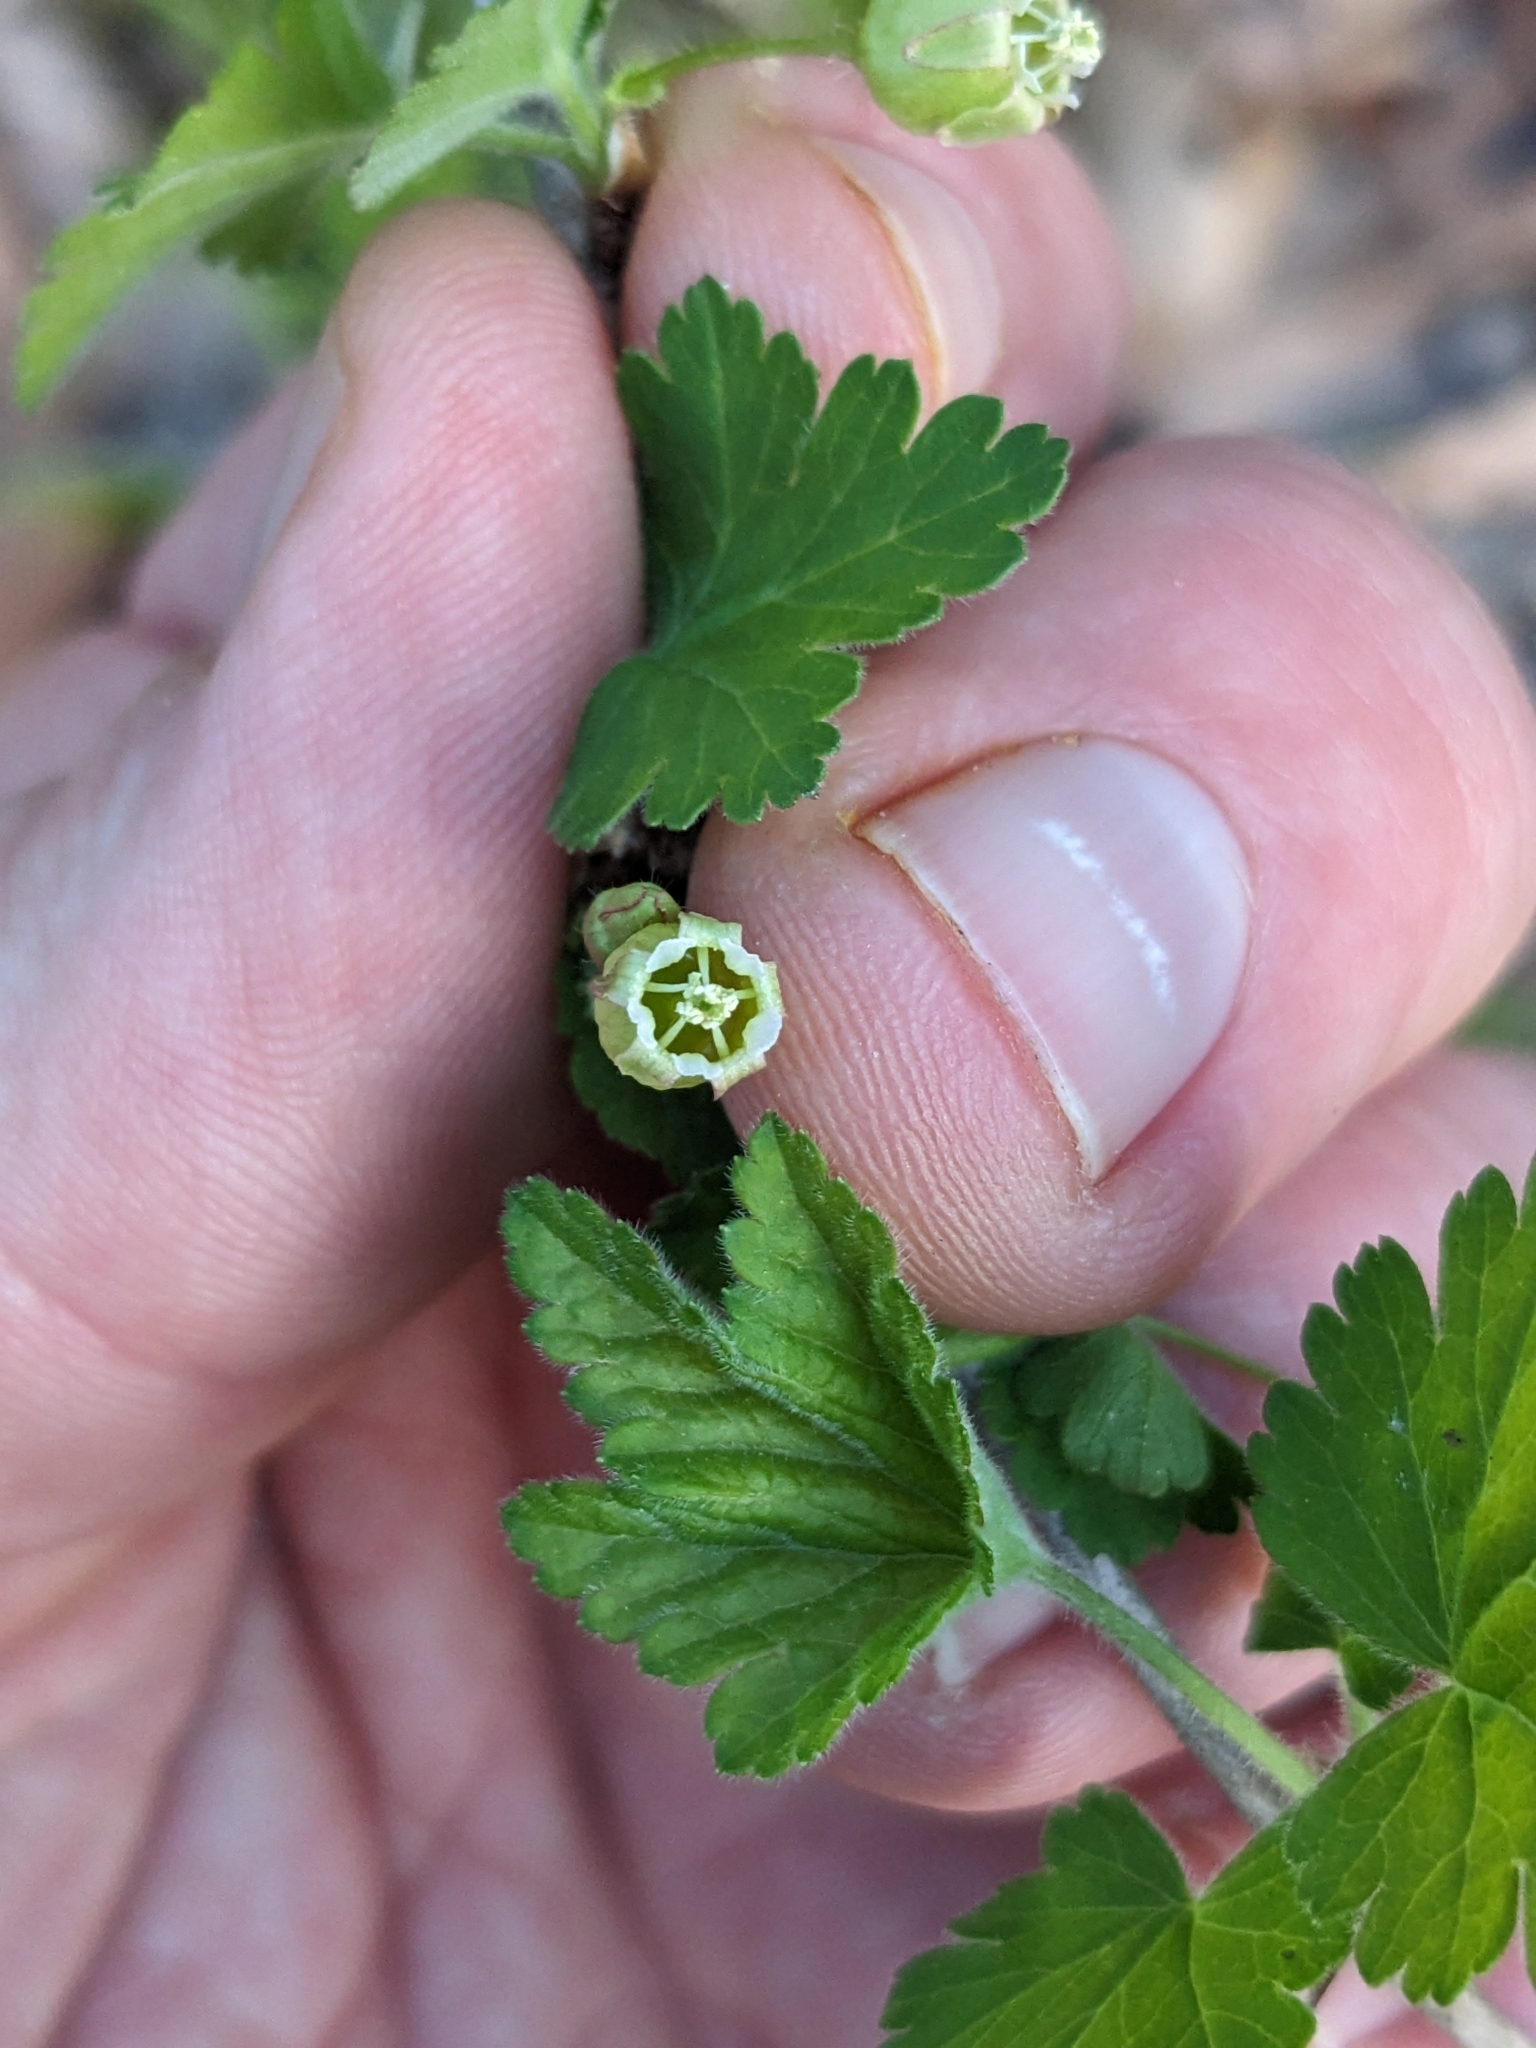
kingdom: Plantae
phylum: Tracheophyta
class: Magnoliopsida
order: Saxifragales
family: Grossulariaceae
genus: Ribes
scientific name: Ribes cynosbati
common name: American gooseberry
